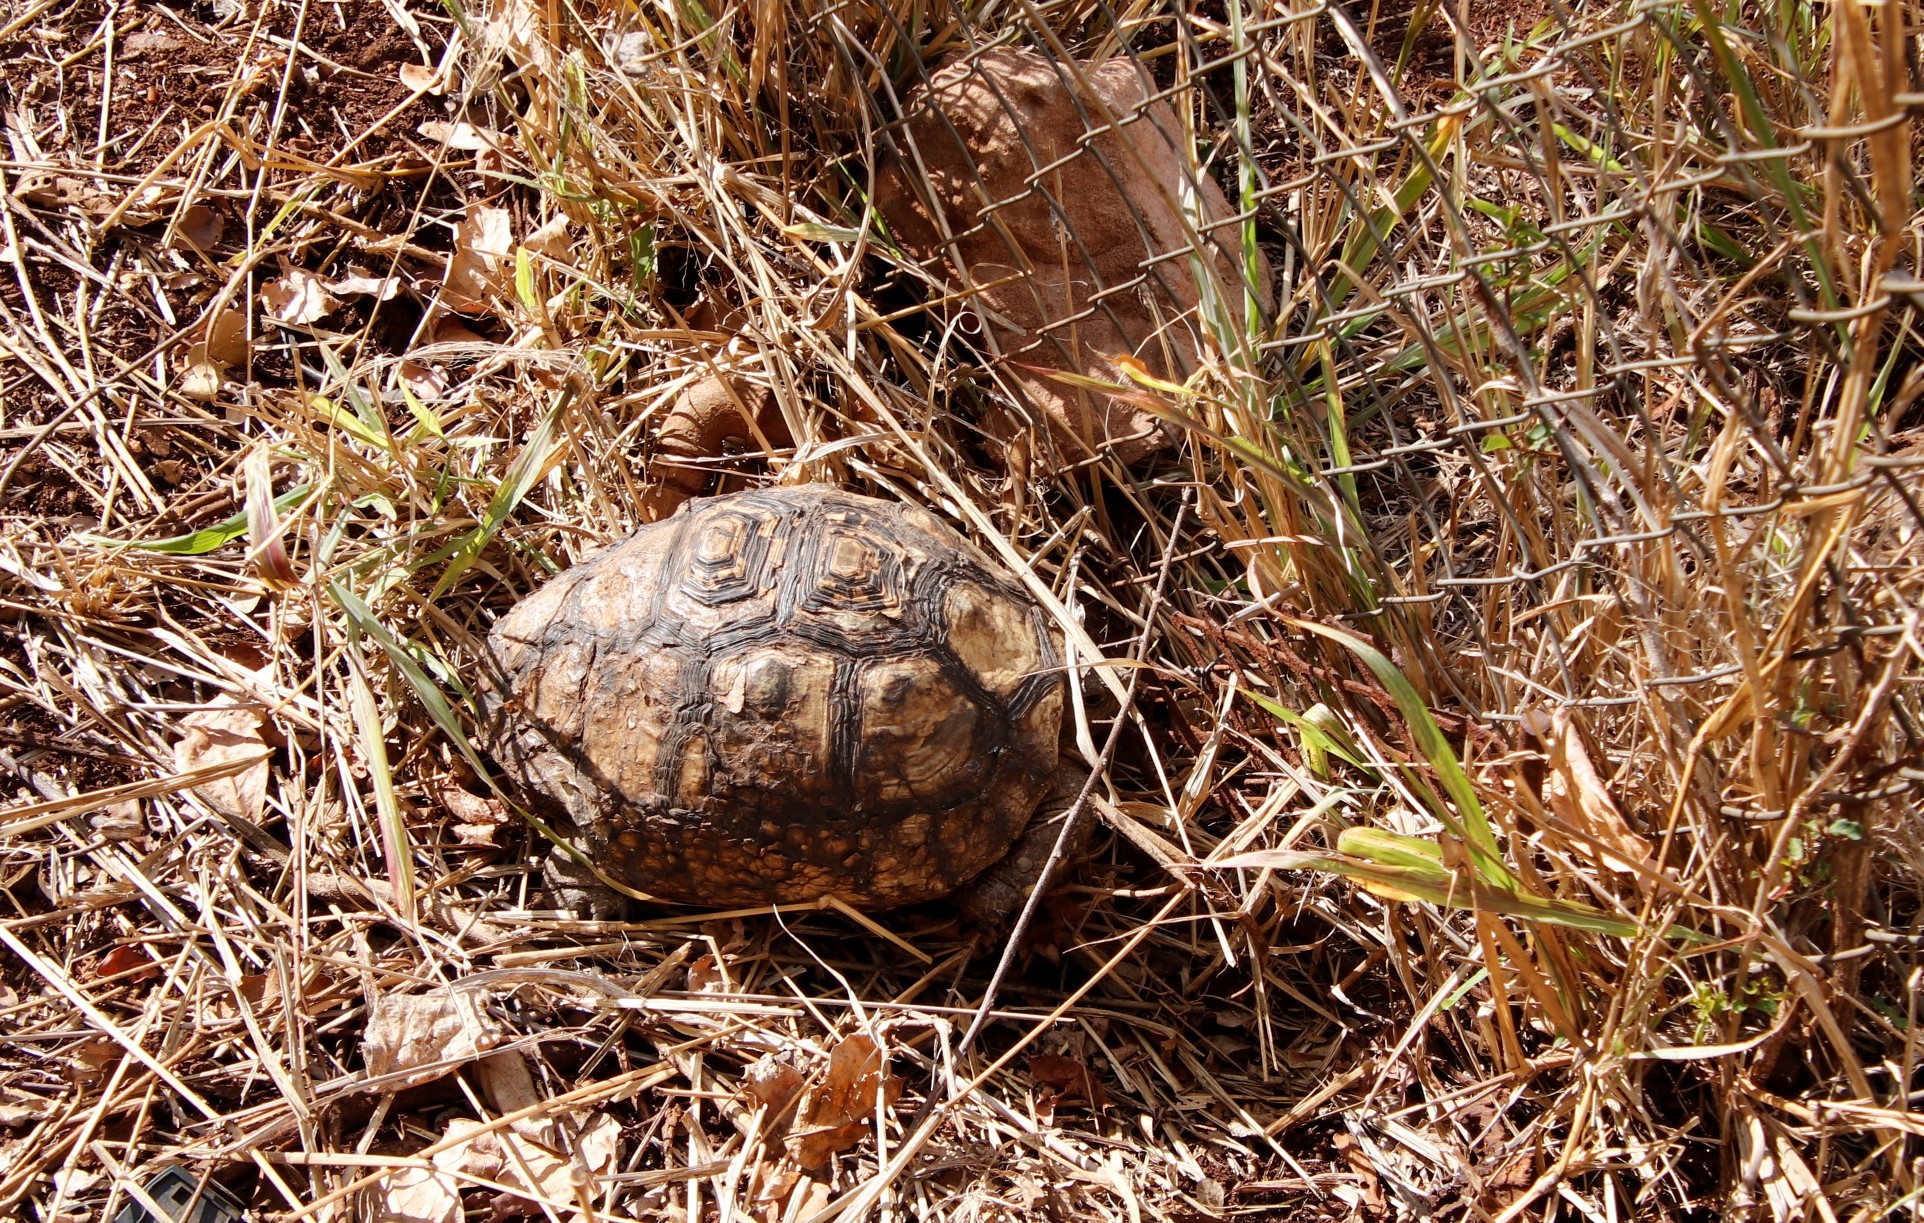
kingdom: Animalia
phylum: Chordata
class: Testudines
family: Testudinidae
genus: Stigmochelys
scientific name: Stigmochelys pardalis
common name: Leopard tortoise
